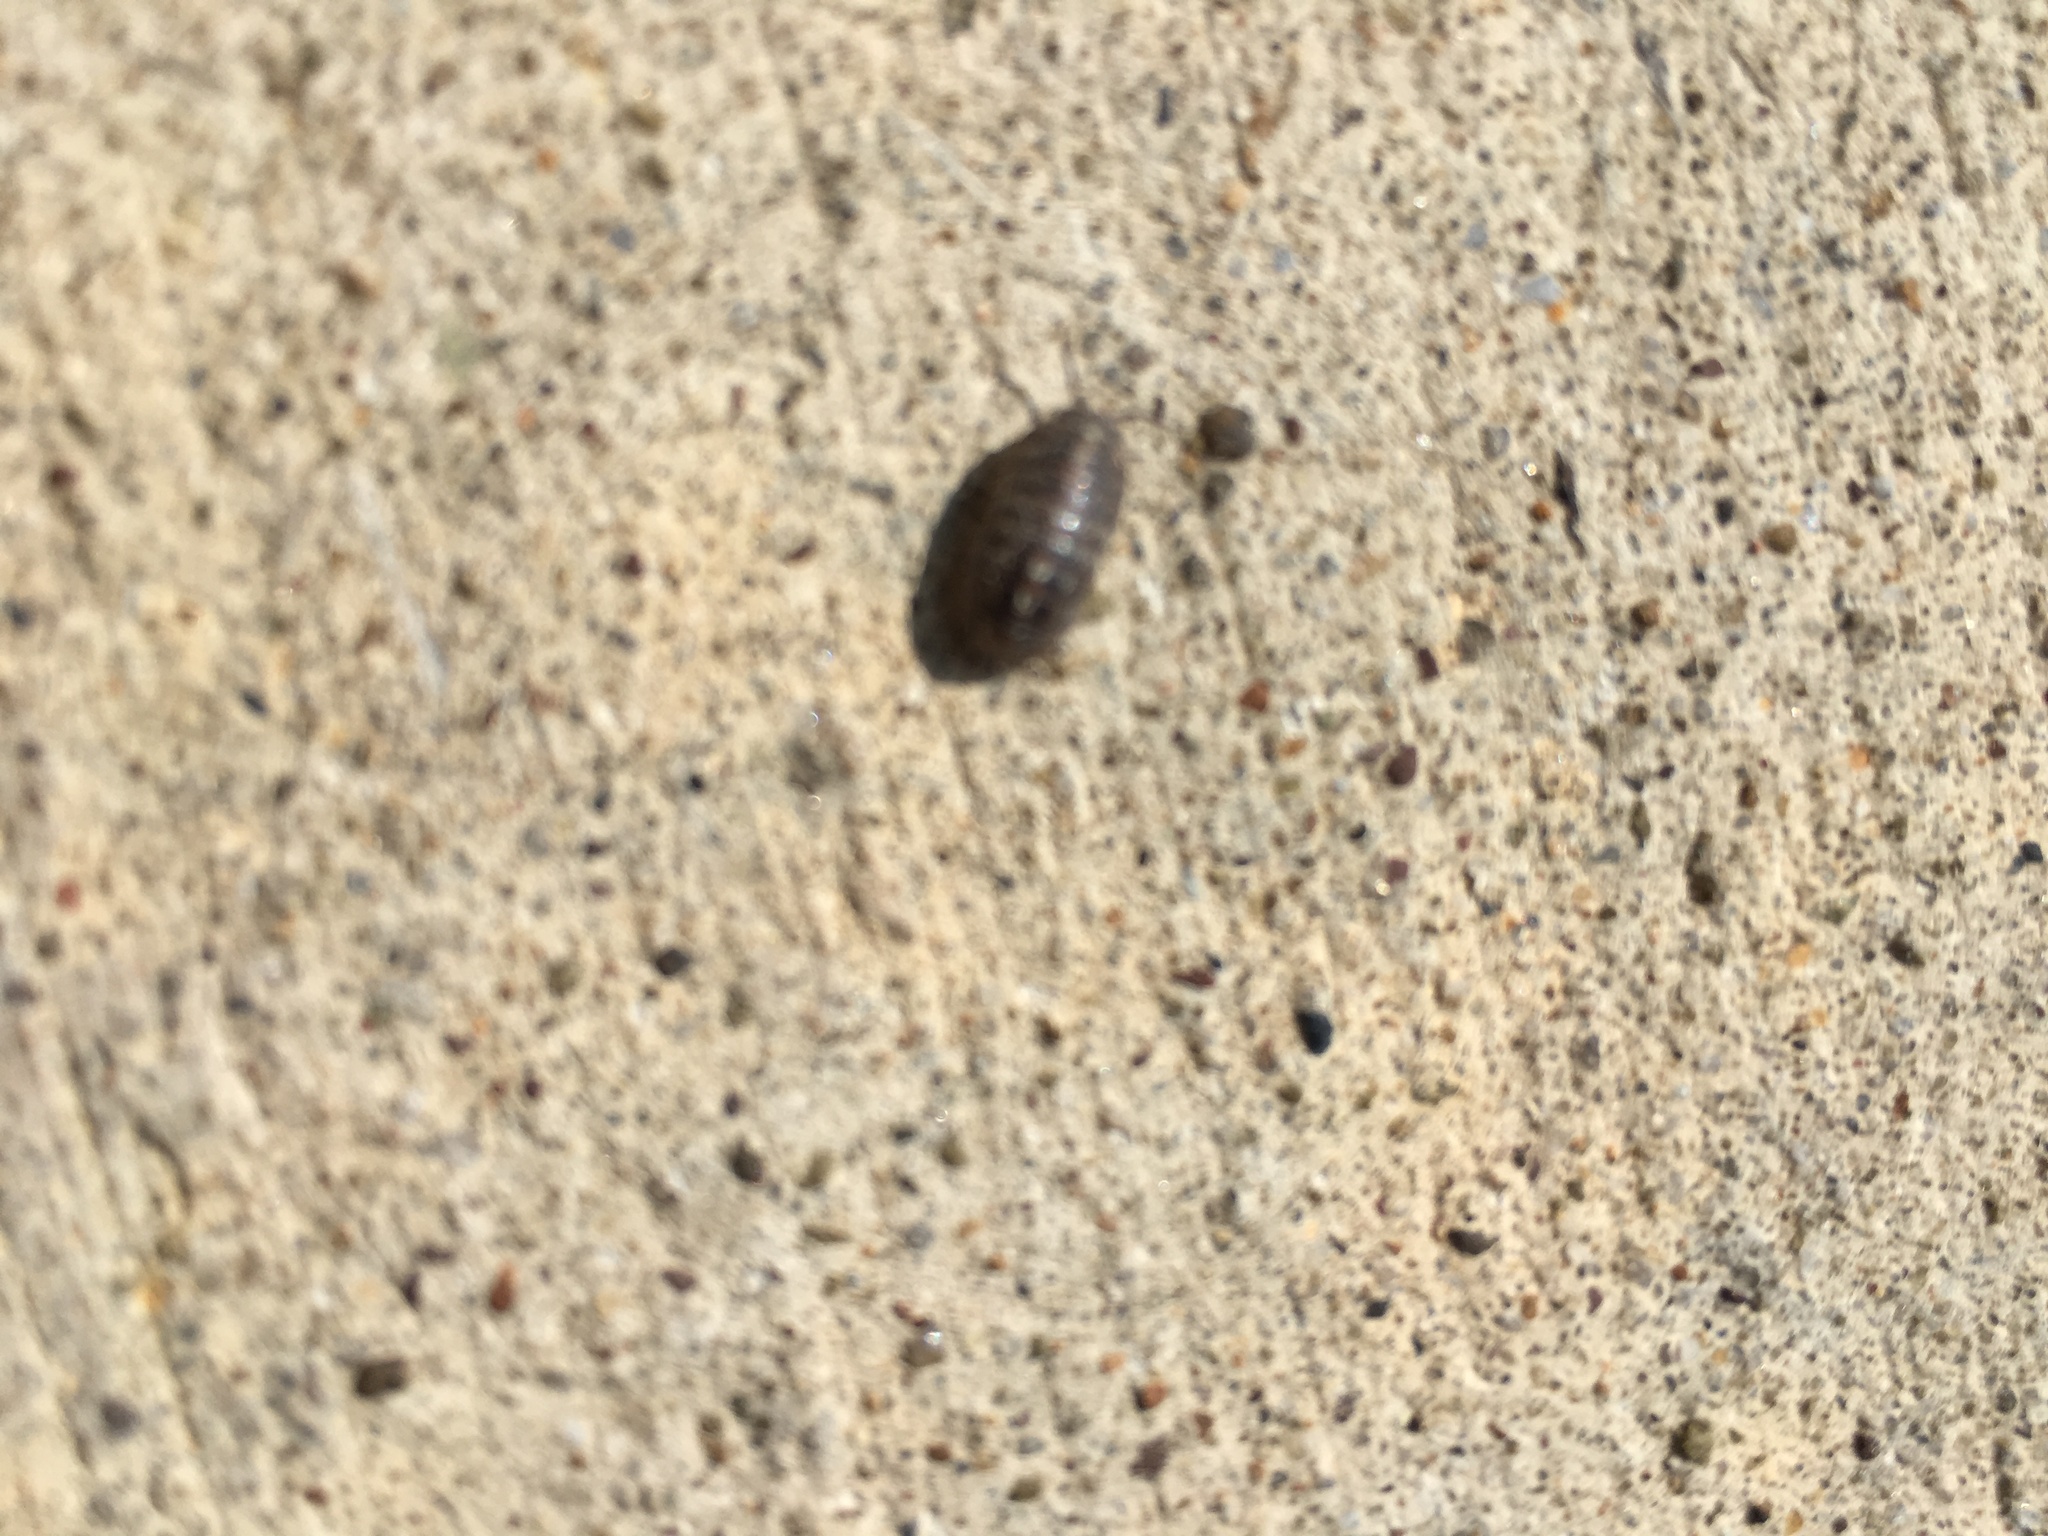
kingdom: Animalia
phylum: Arthropoda
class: Malacostraca
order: Isopoda
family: Armadillidiidae
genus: Armadillidium
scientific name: Armadillidium vulgare
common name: Common pill woodlouse
